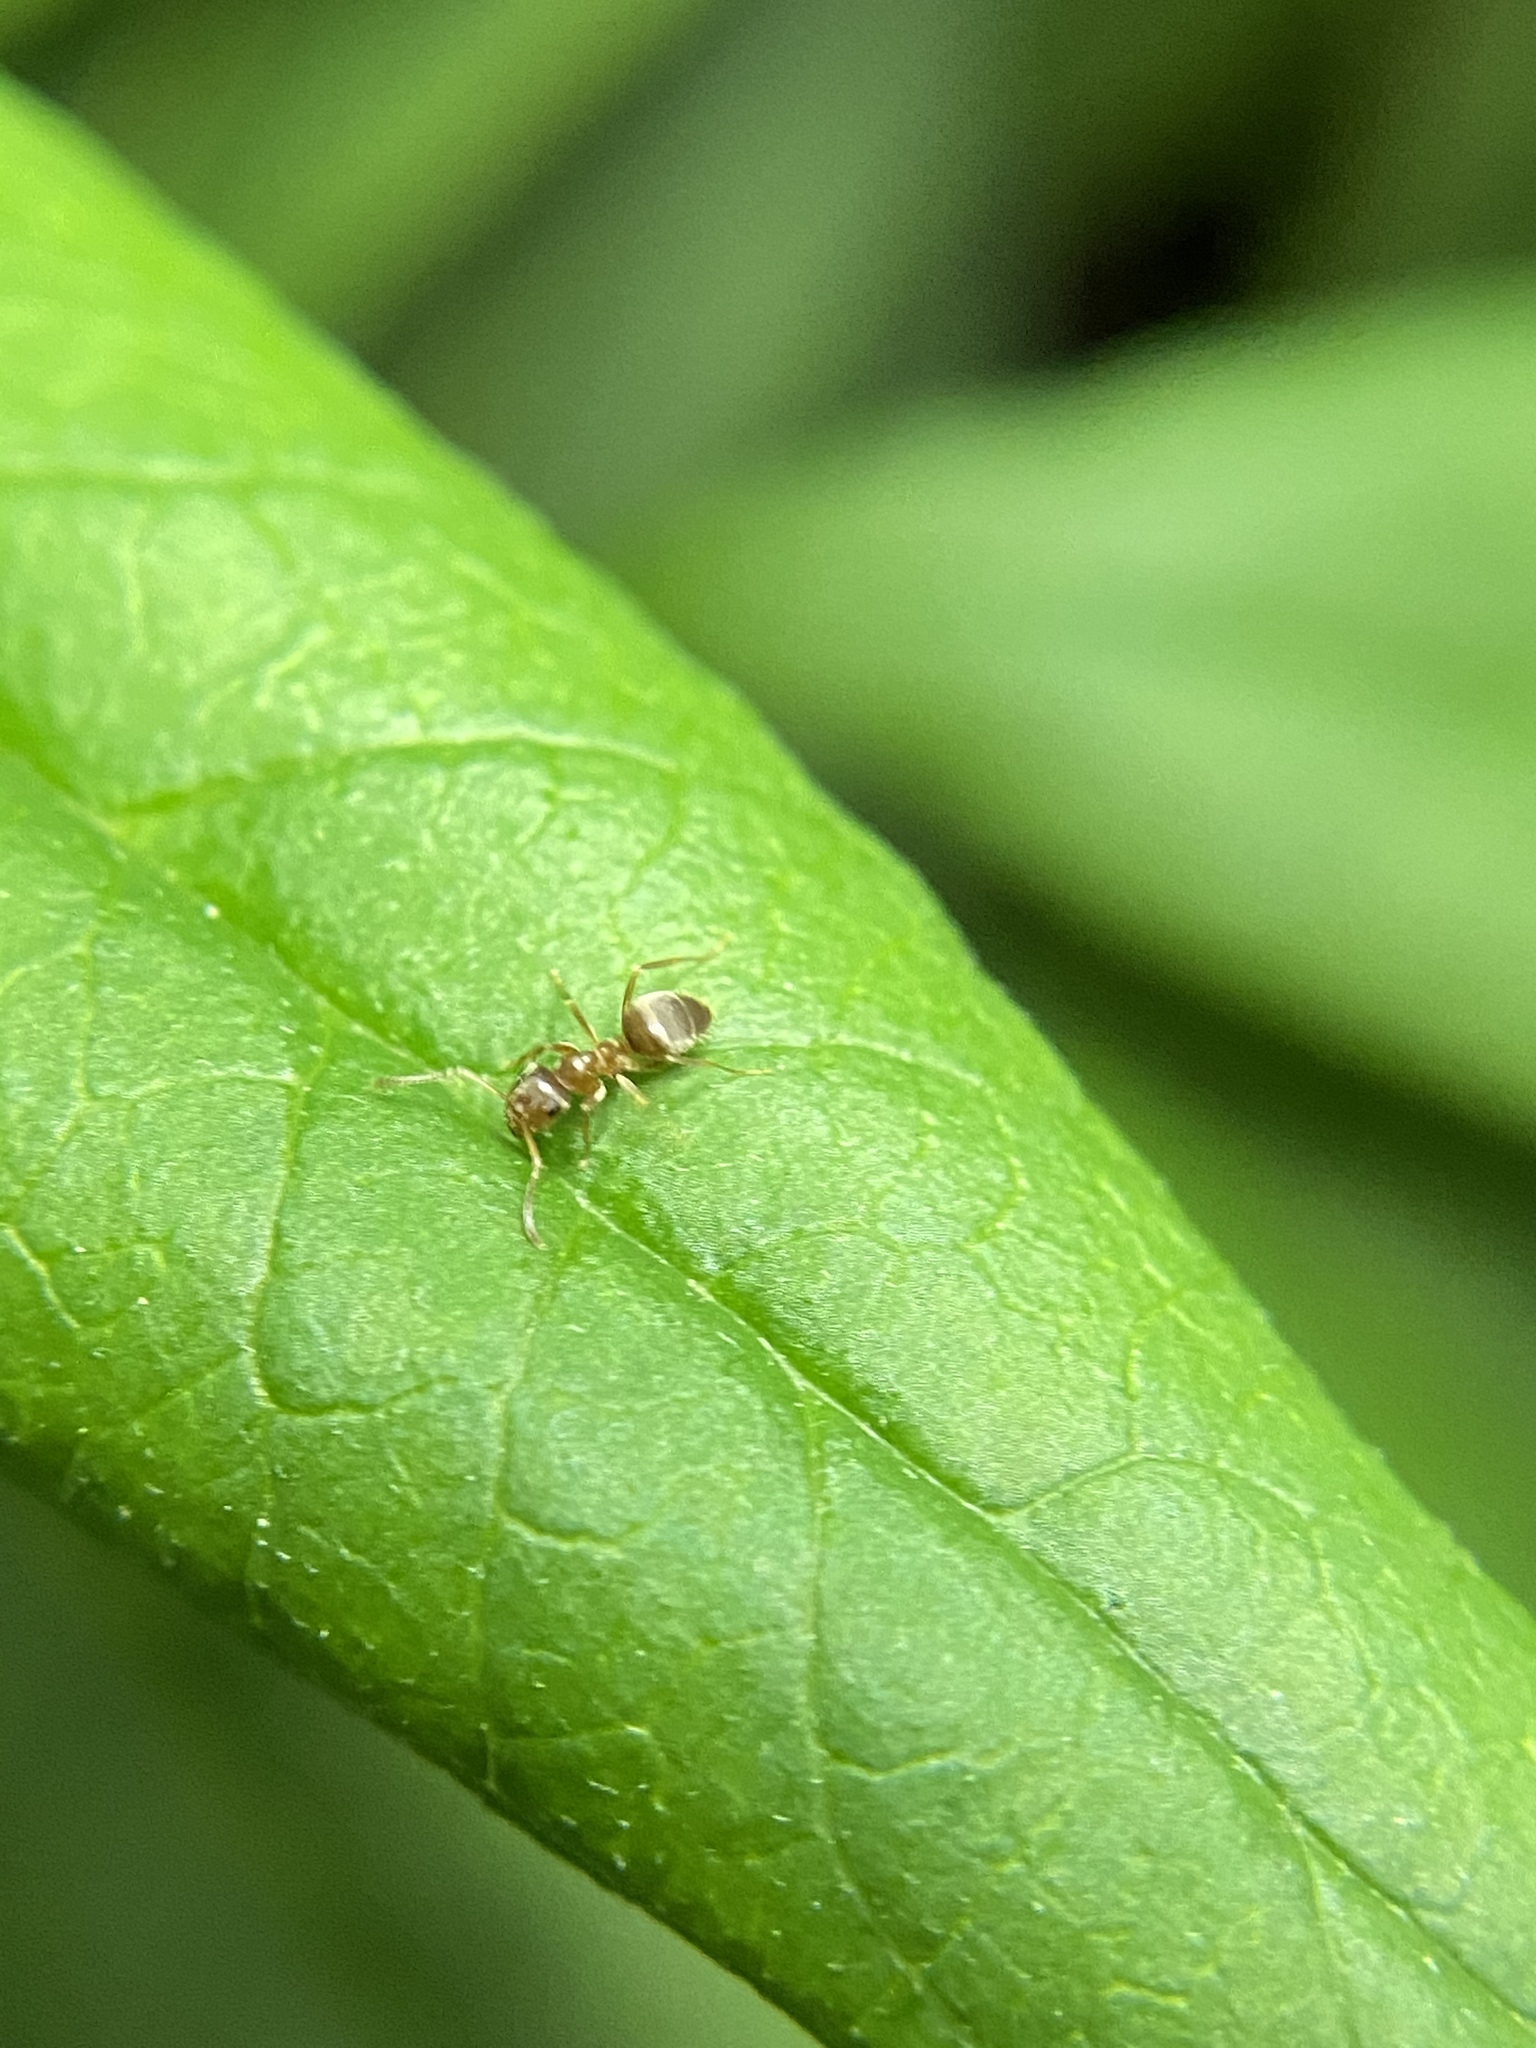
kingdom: Animalia
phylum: Arthropoda
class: Insecta
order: Hymenoptera
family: Formicidae
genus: Lasius
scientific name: Lasius neoniger
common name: Turfgrass ant
